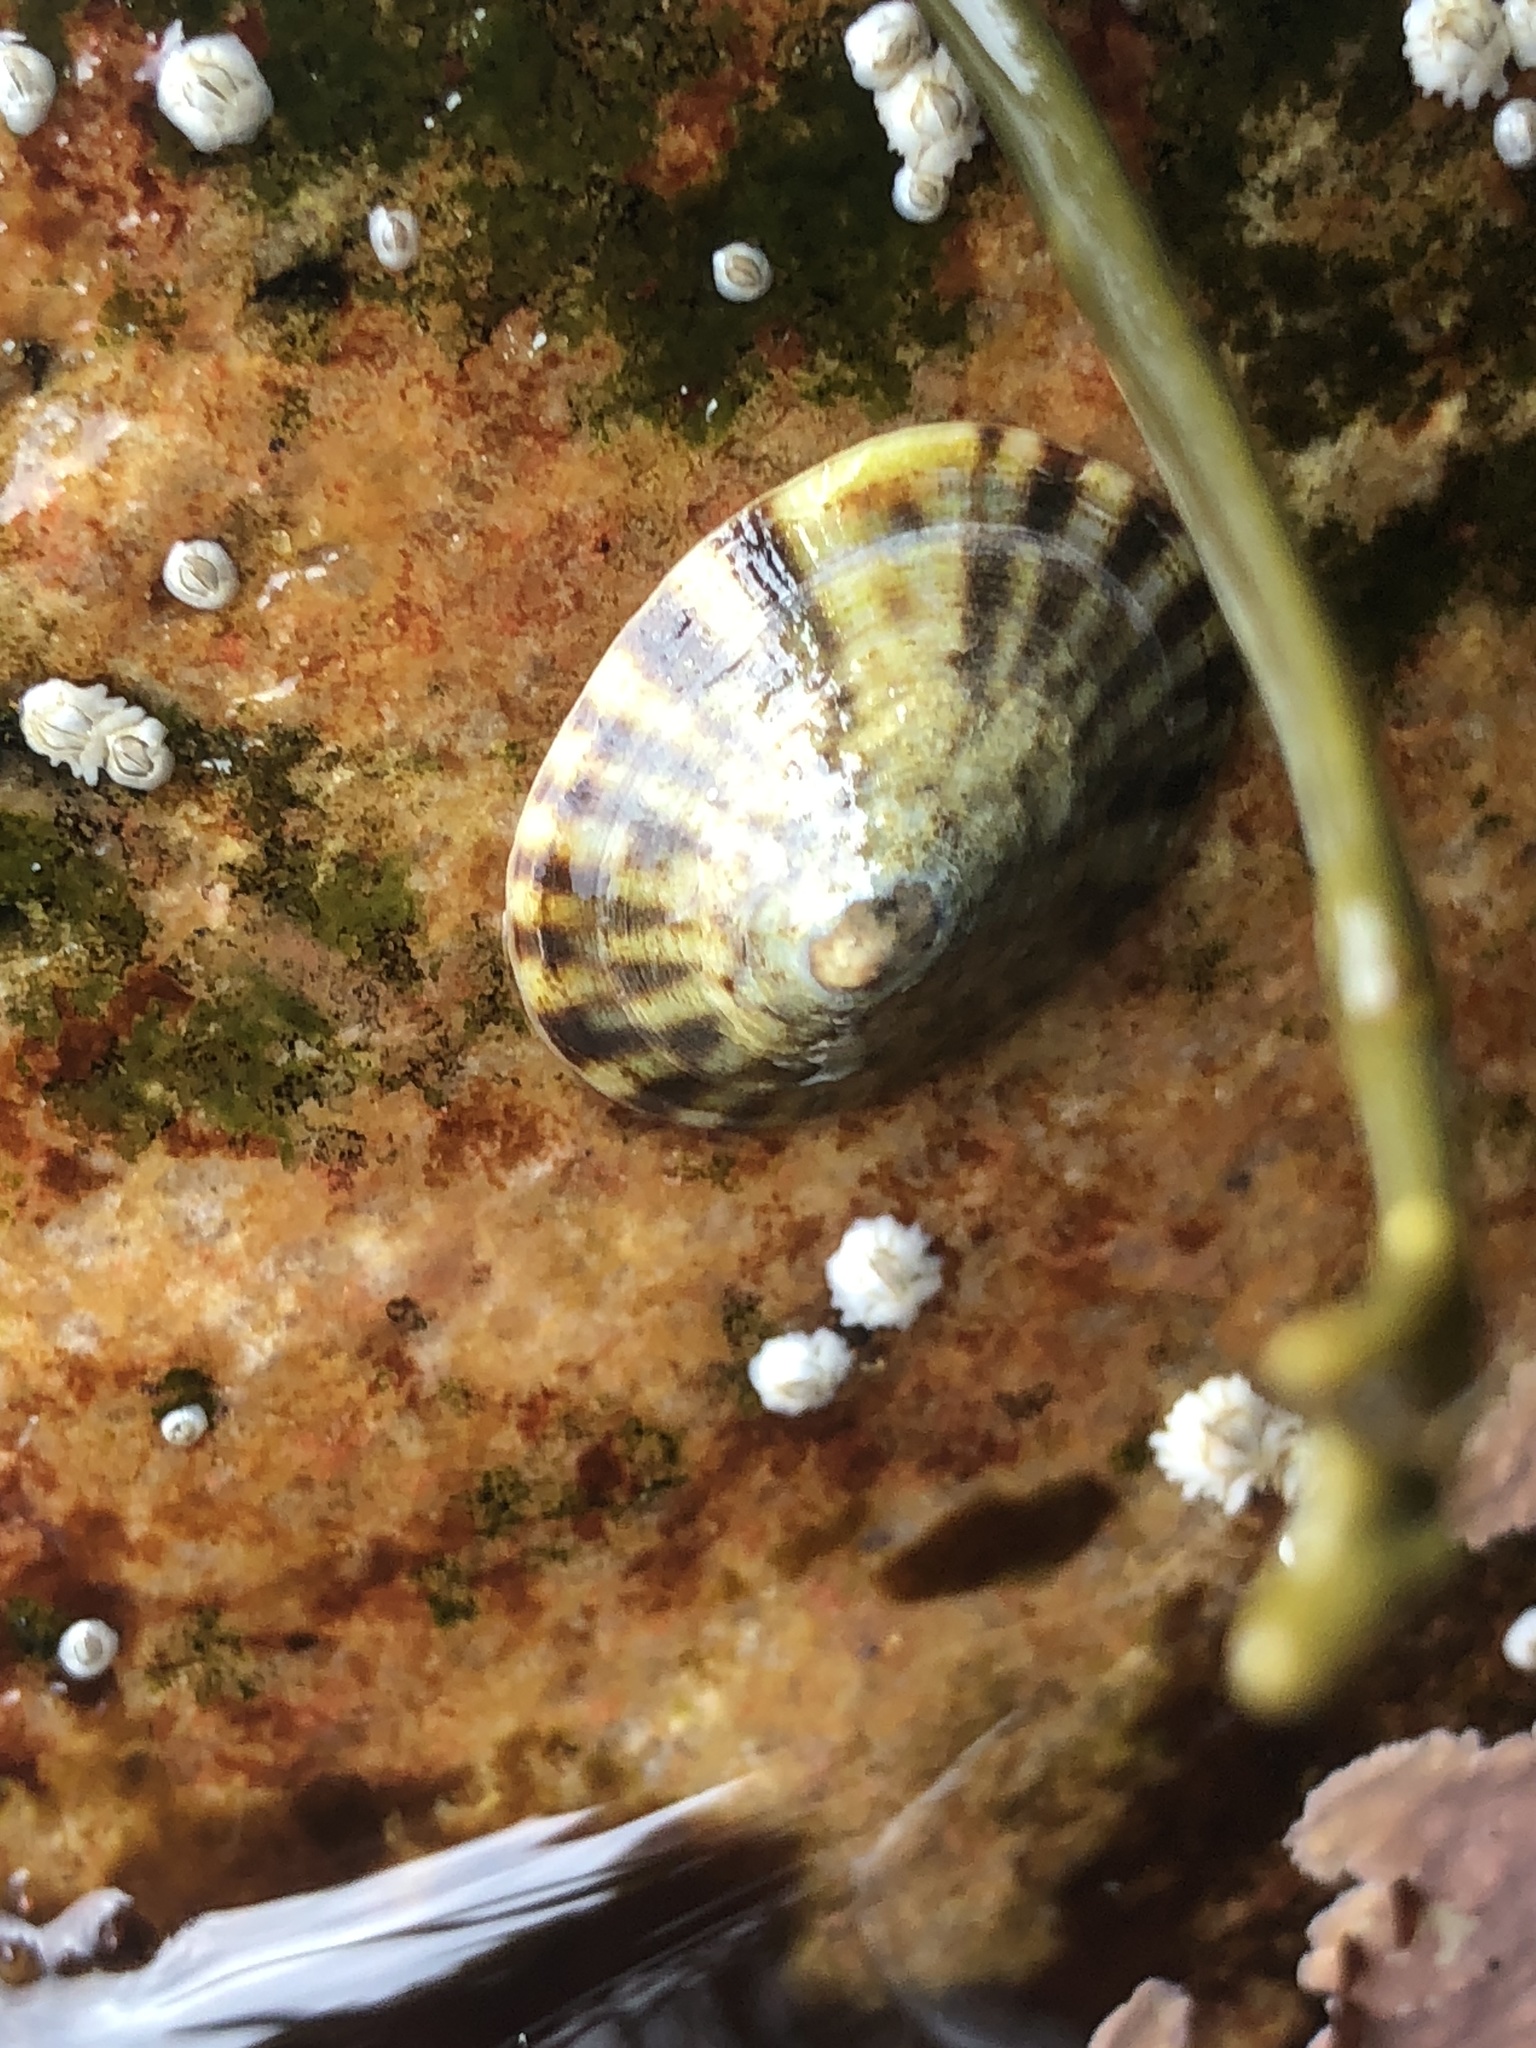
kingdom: Animalia
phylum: Mollusca
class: Gastropoda
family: Lottiidae
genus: Testudinalia
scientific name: Testudinalia testudinalis
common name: Common tortoiseshell limpet
